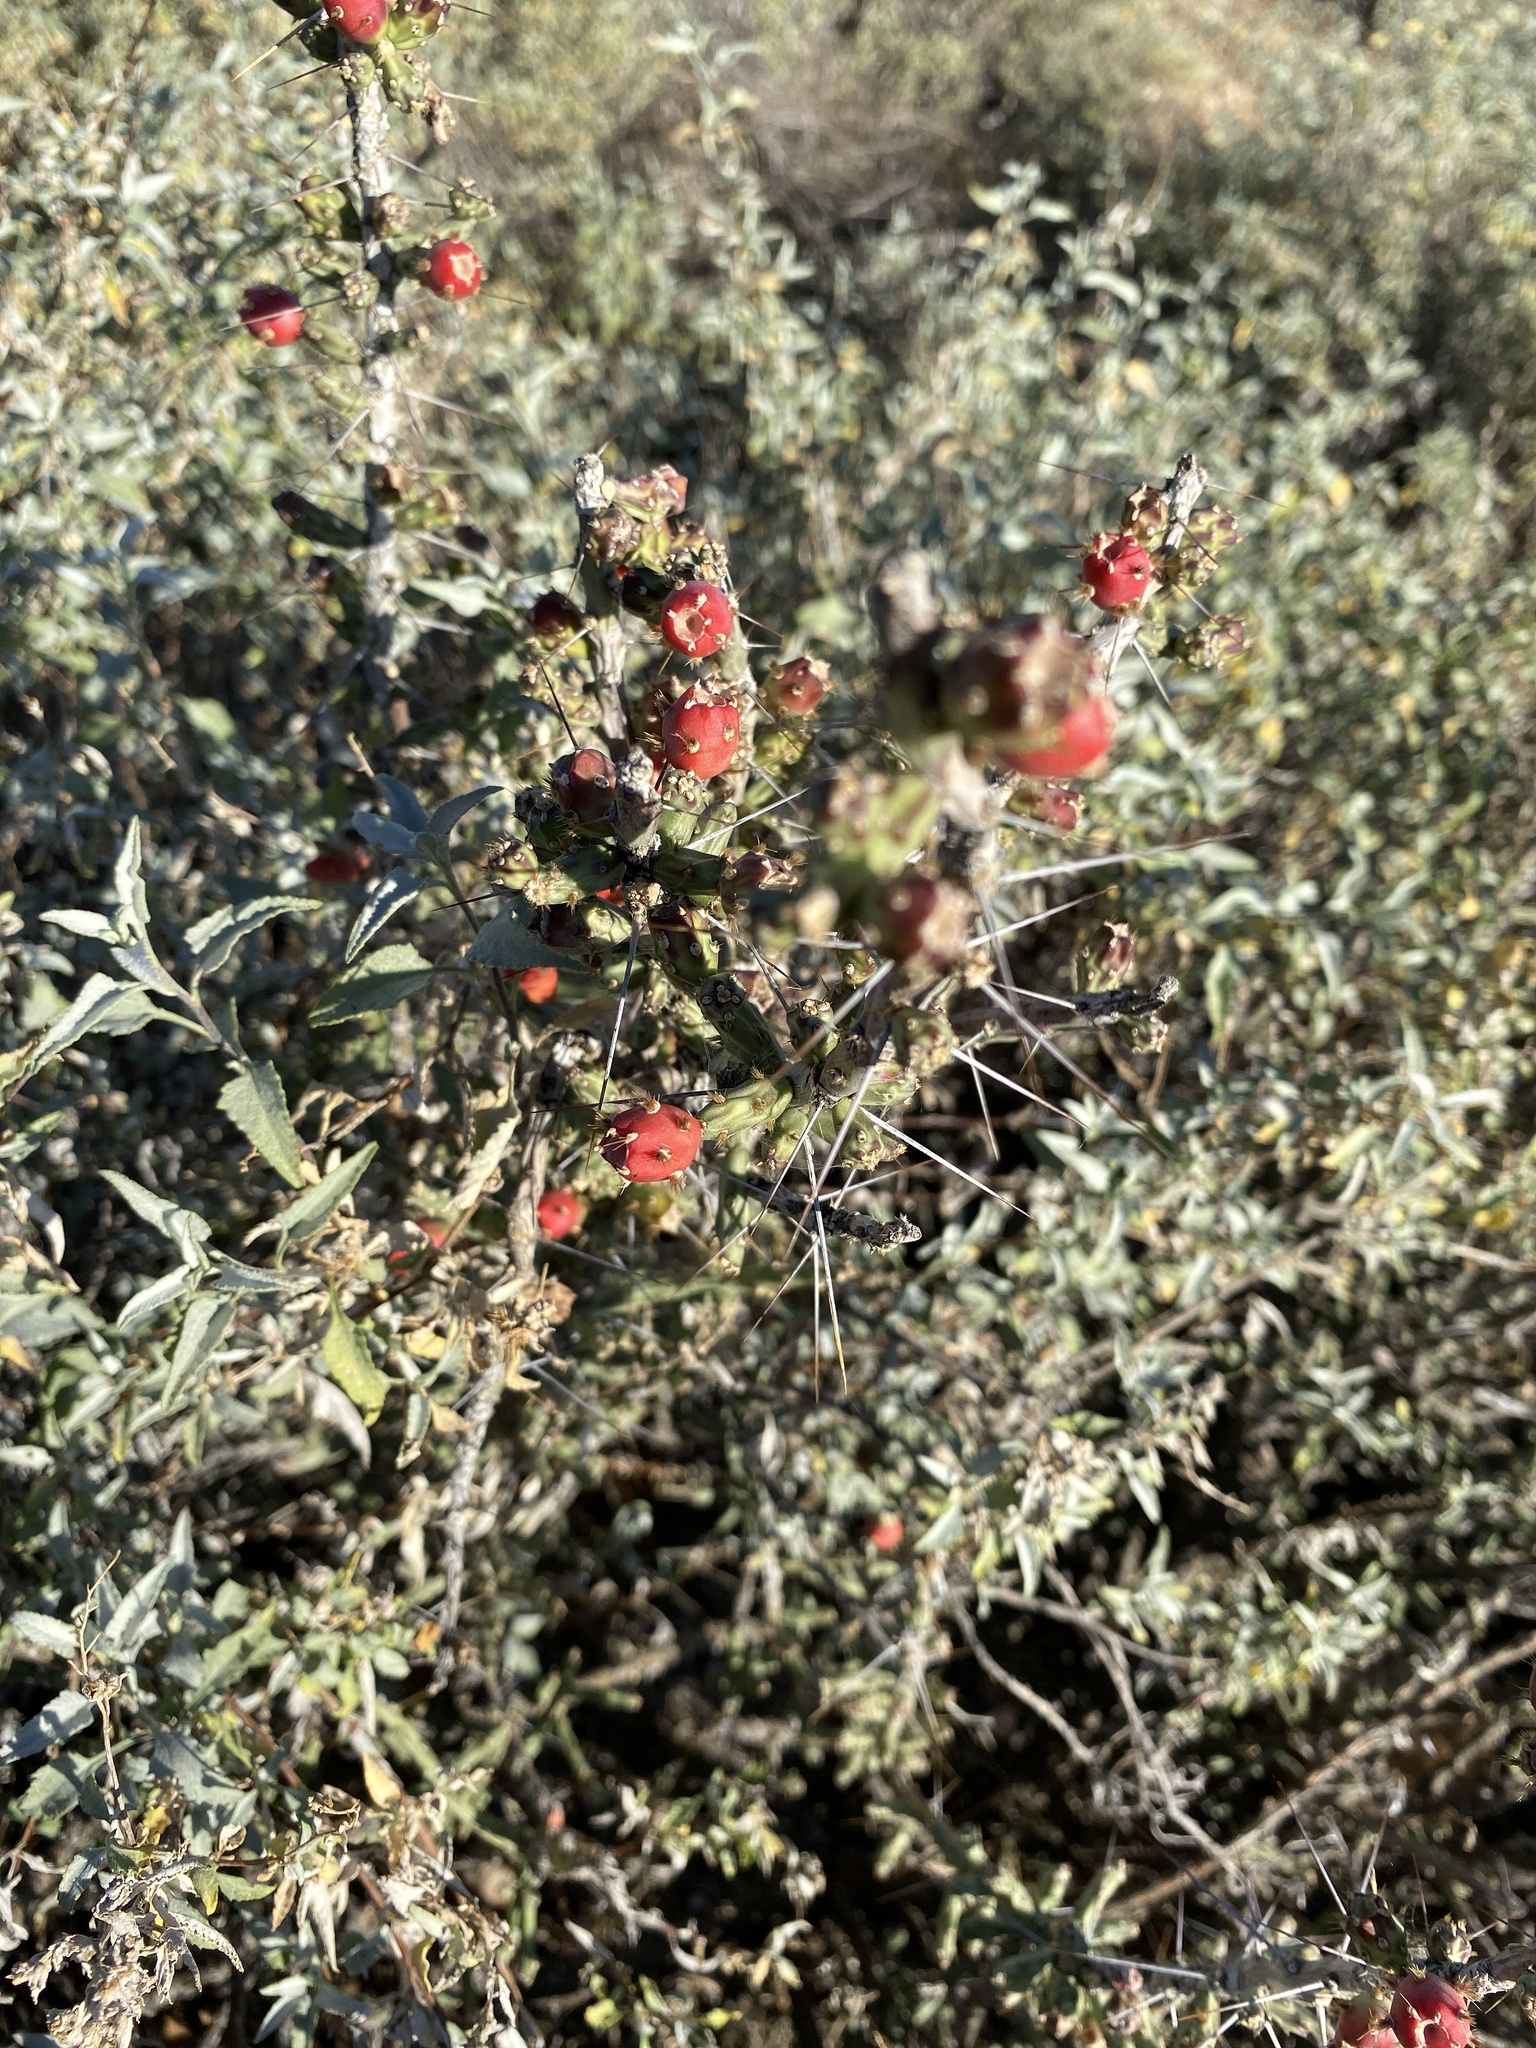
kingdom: Plantae
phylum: Tracheophyta
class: Magnoliopsida
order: Caryophyllales
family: Cactaceae
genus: Cylindropuntia
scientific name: Cylindropuntia leptocaulis
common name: Christmas cactus
